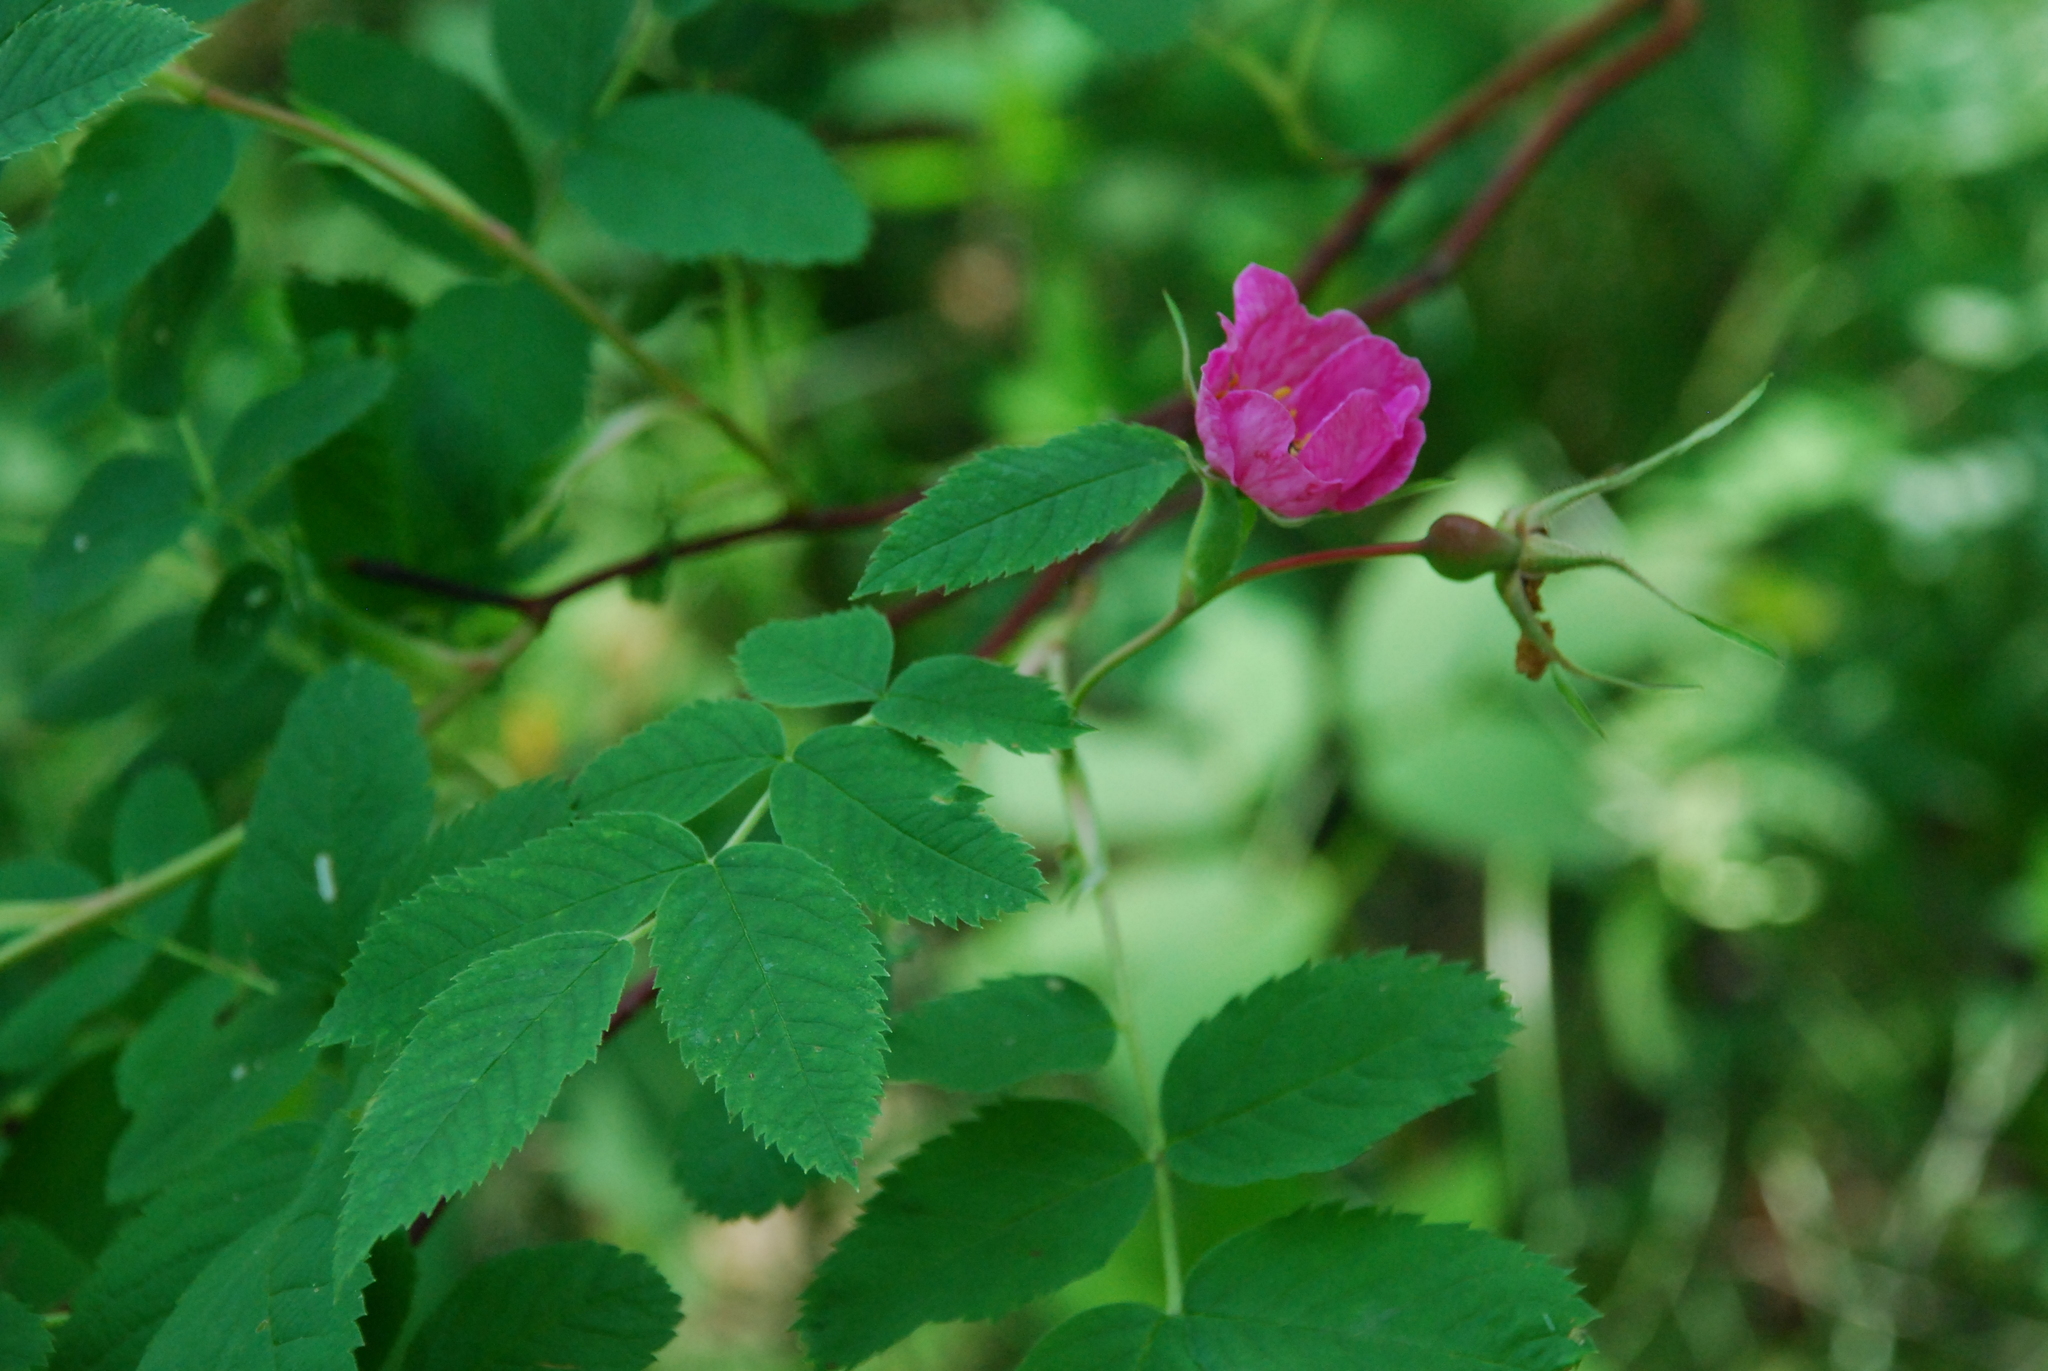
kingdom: Plantae
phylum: Tracheophyta
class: Magnoliopsida
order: Rosales
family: Rosaceae
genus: Rosa
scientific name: Rosa
